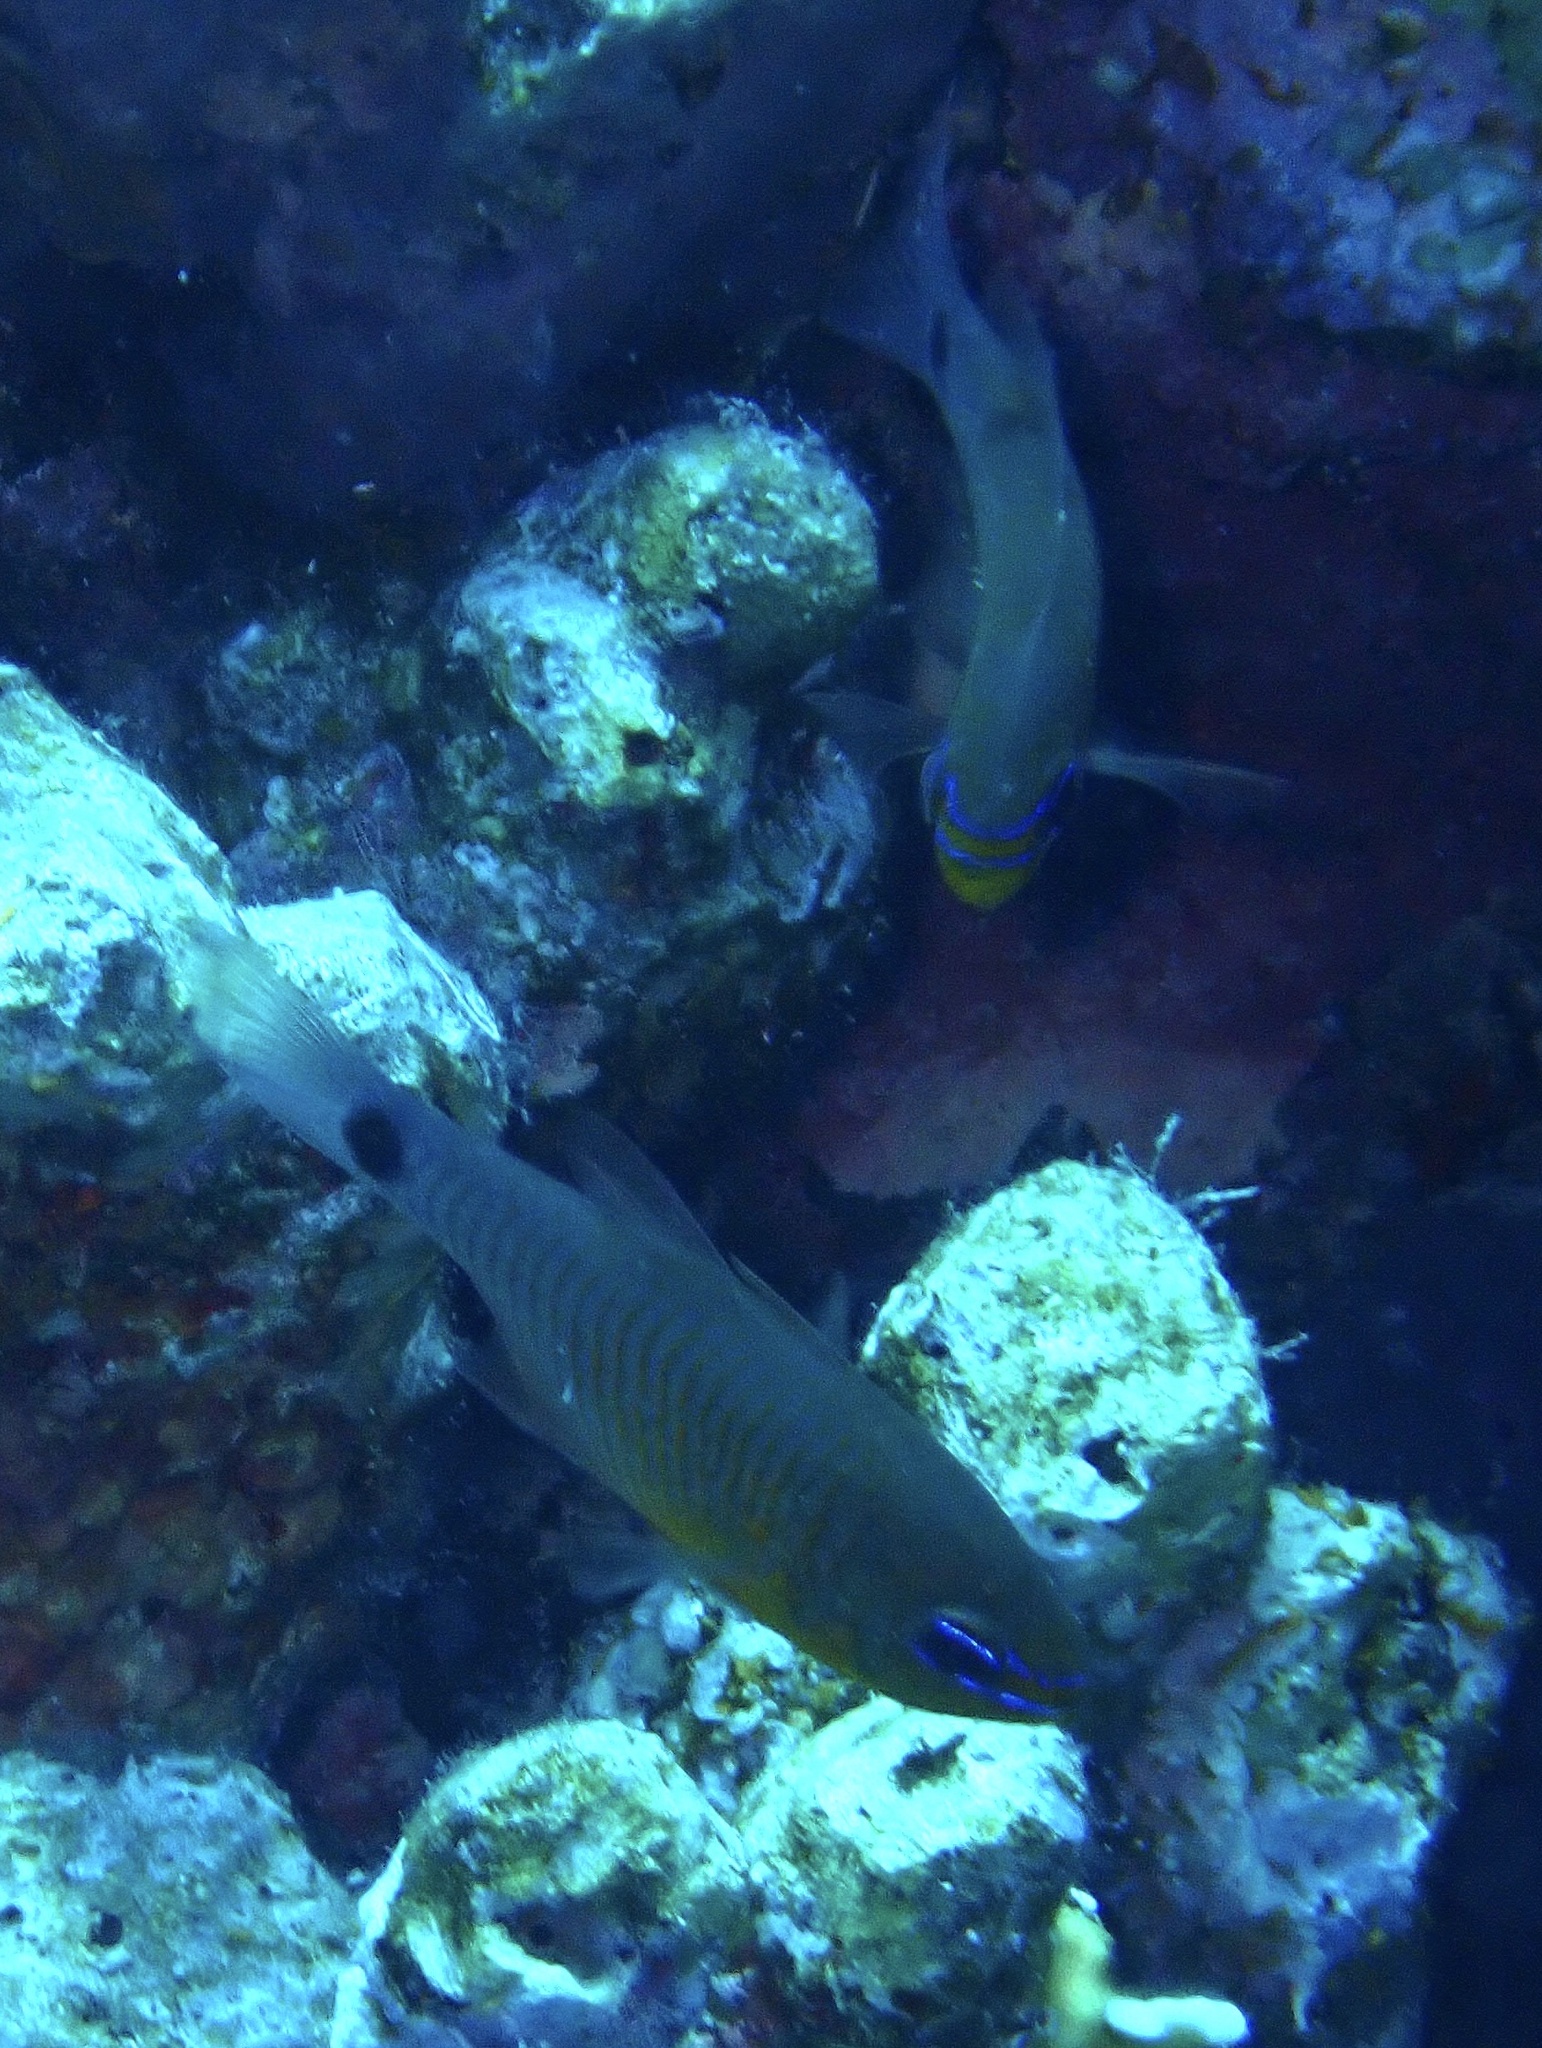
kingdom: Animalia
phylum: Chordata
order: Perciformes
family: Apogonidae
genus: Taeniamia
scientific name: Taeniamia fucata
